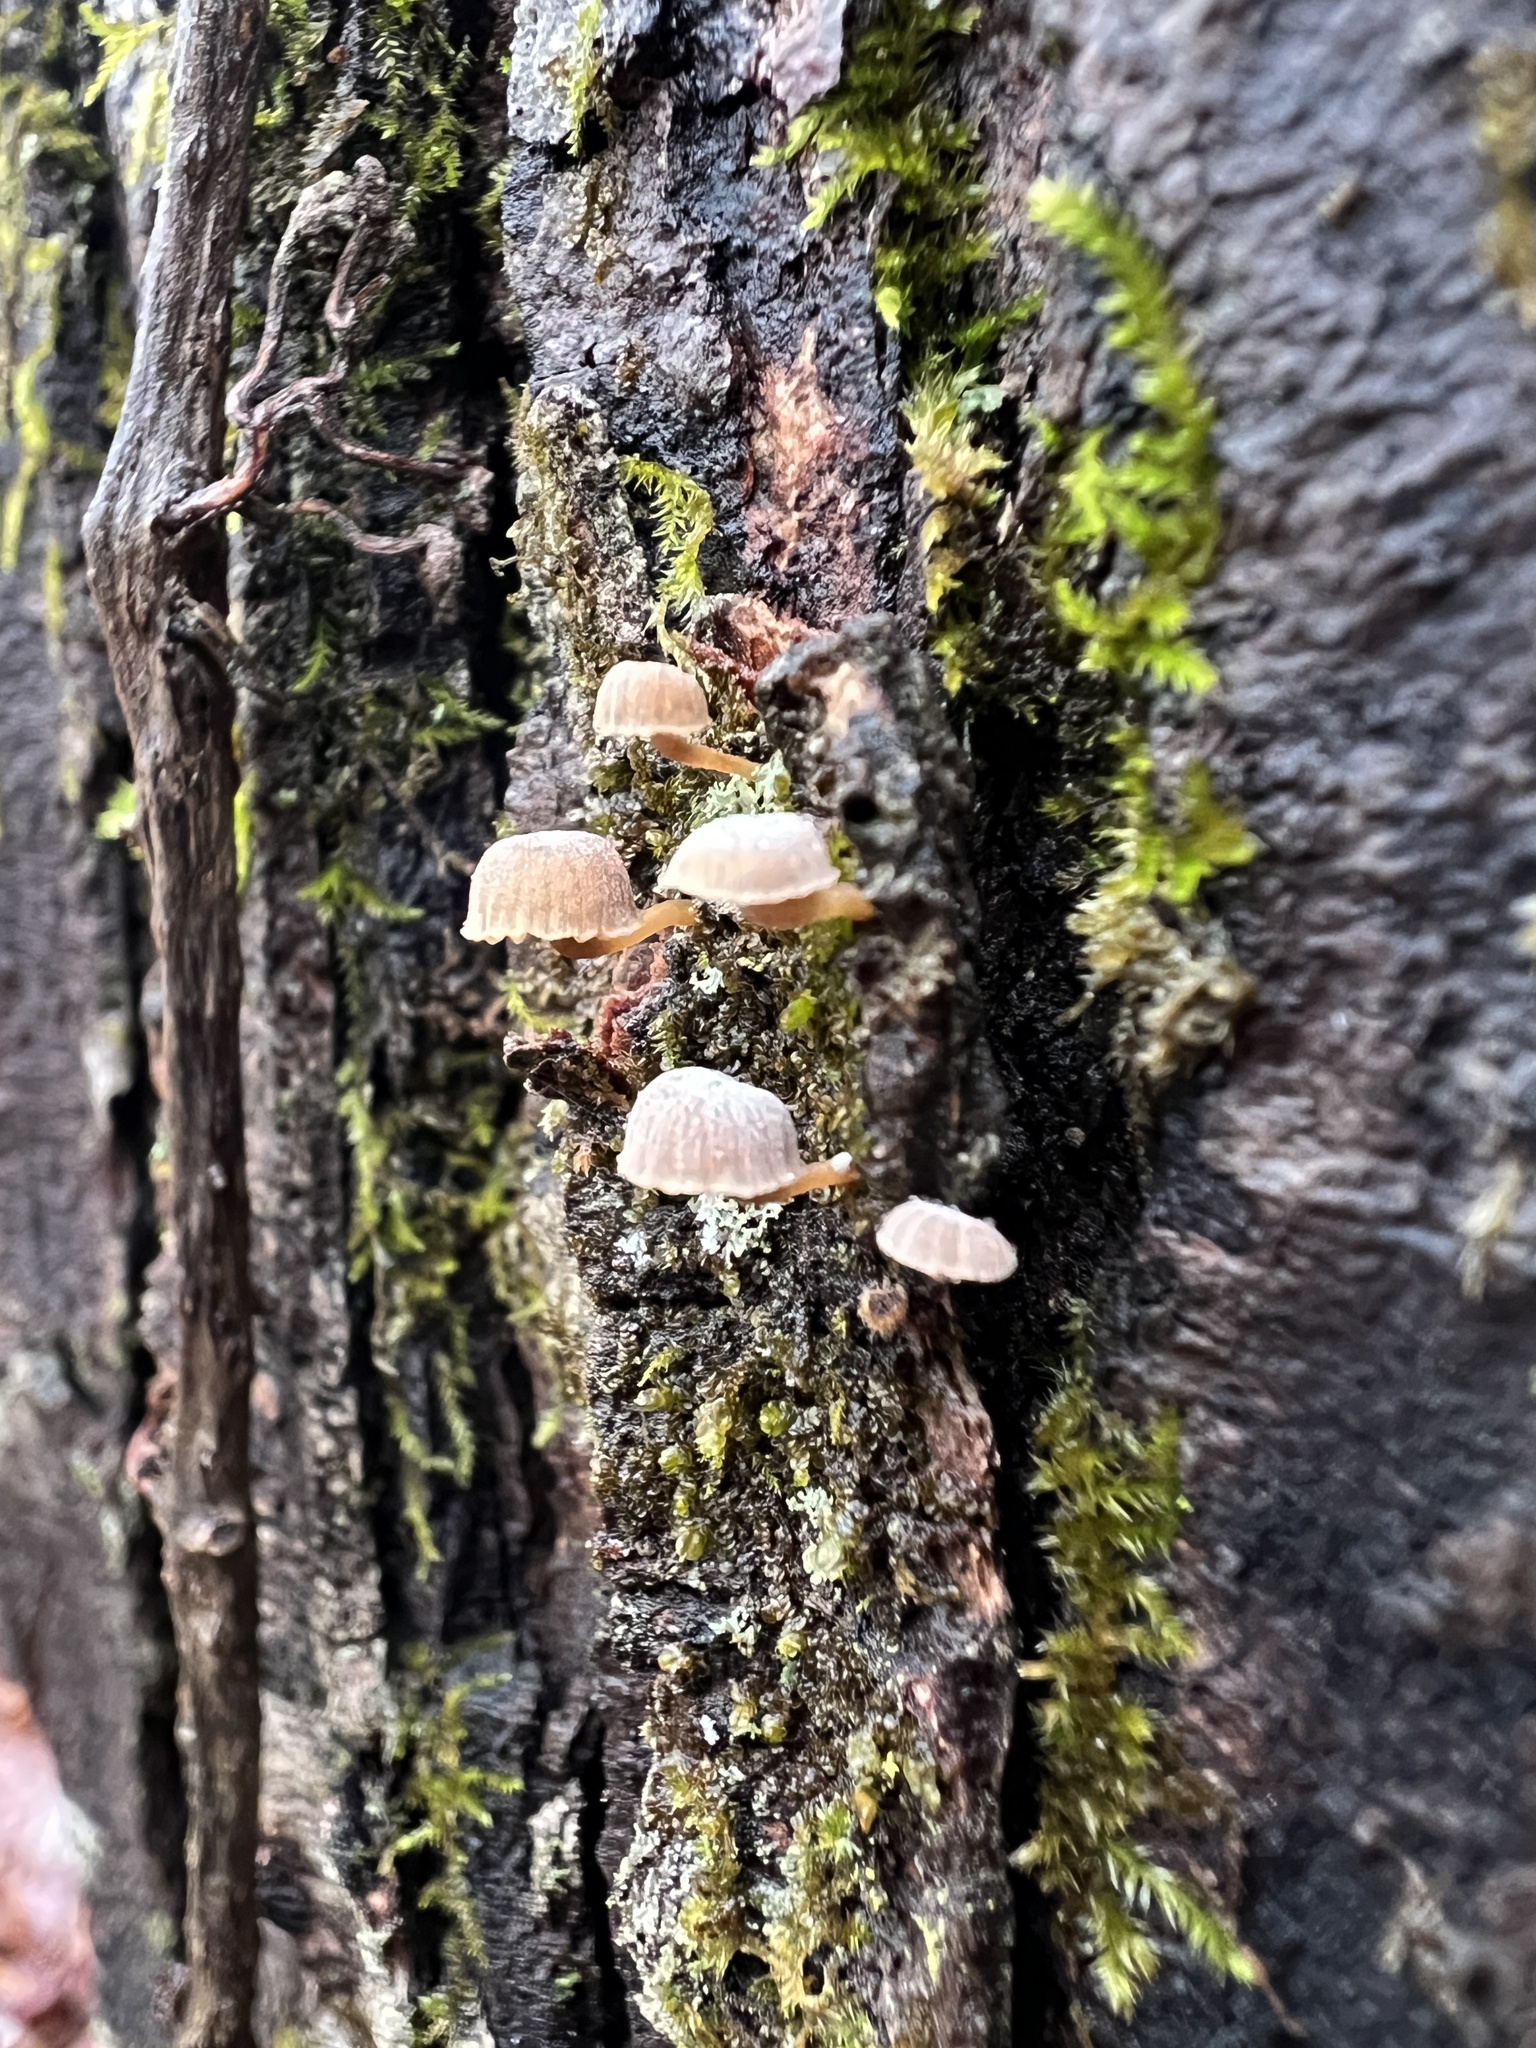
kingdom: Fungi
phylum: Basidiomycota
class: Agaricomycetes
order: Agaricales
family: Mycenaceae
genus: Mycena
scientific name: Mycena meliigena
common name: Mauve bonnet
